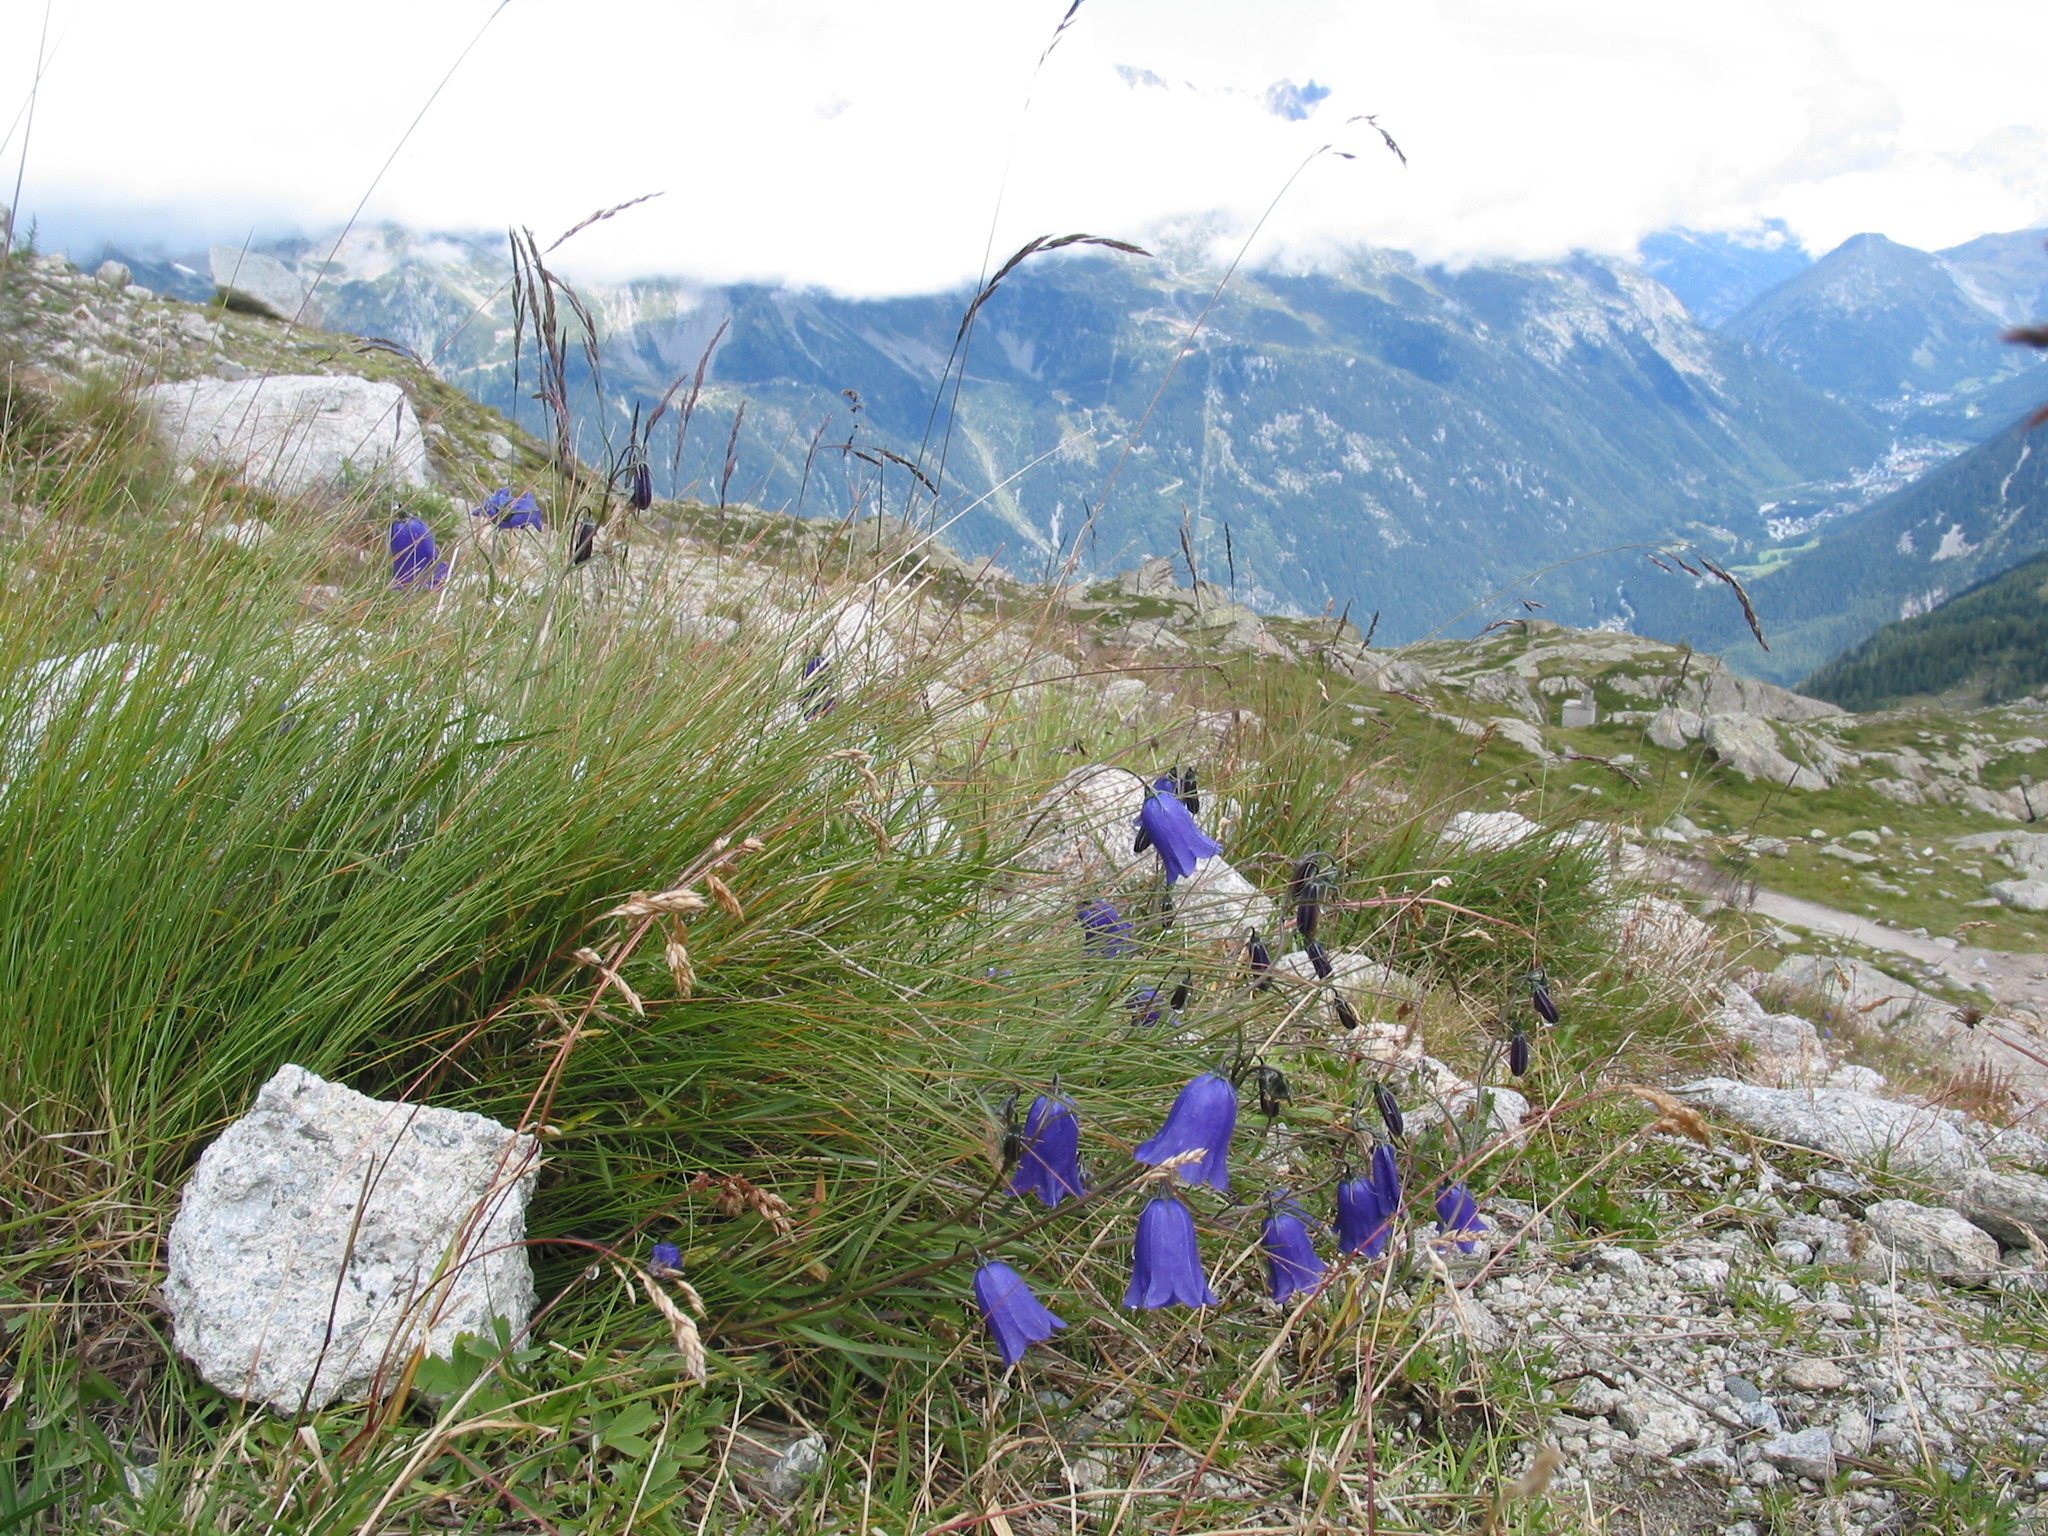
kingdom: Plantae
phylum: Tracheophyta
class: Magnoliopsida
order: Asterales
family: Campanulaceae
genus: Campanula
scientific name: Campanula scheuchzeri
